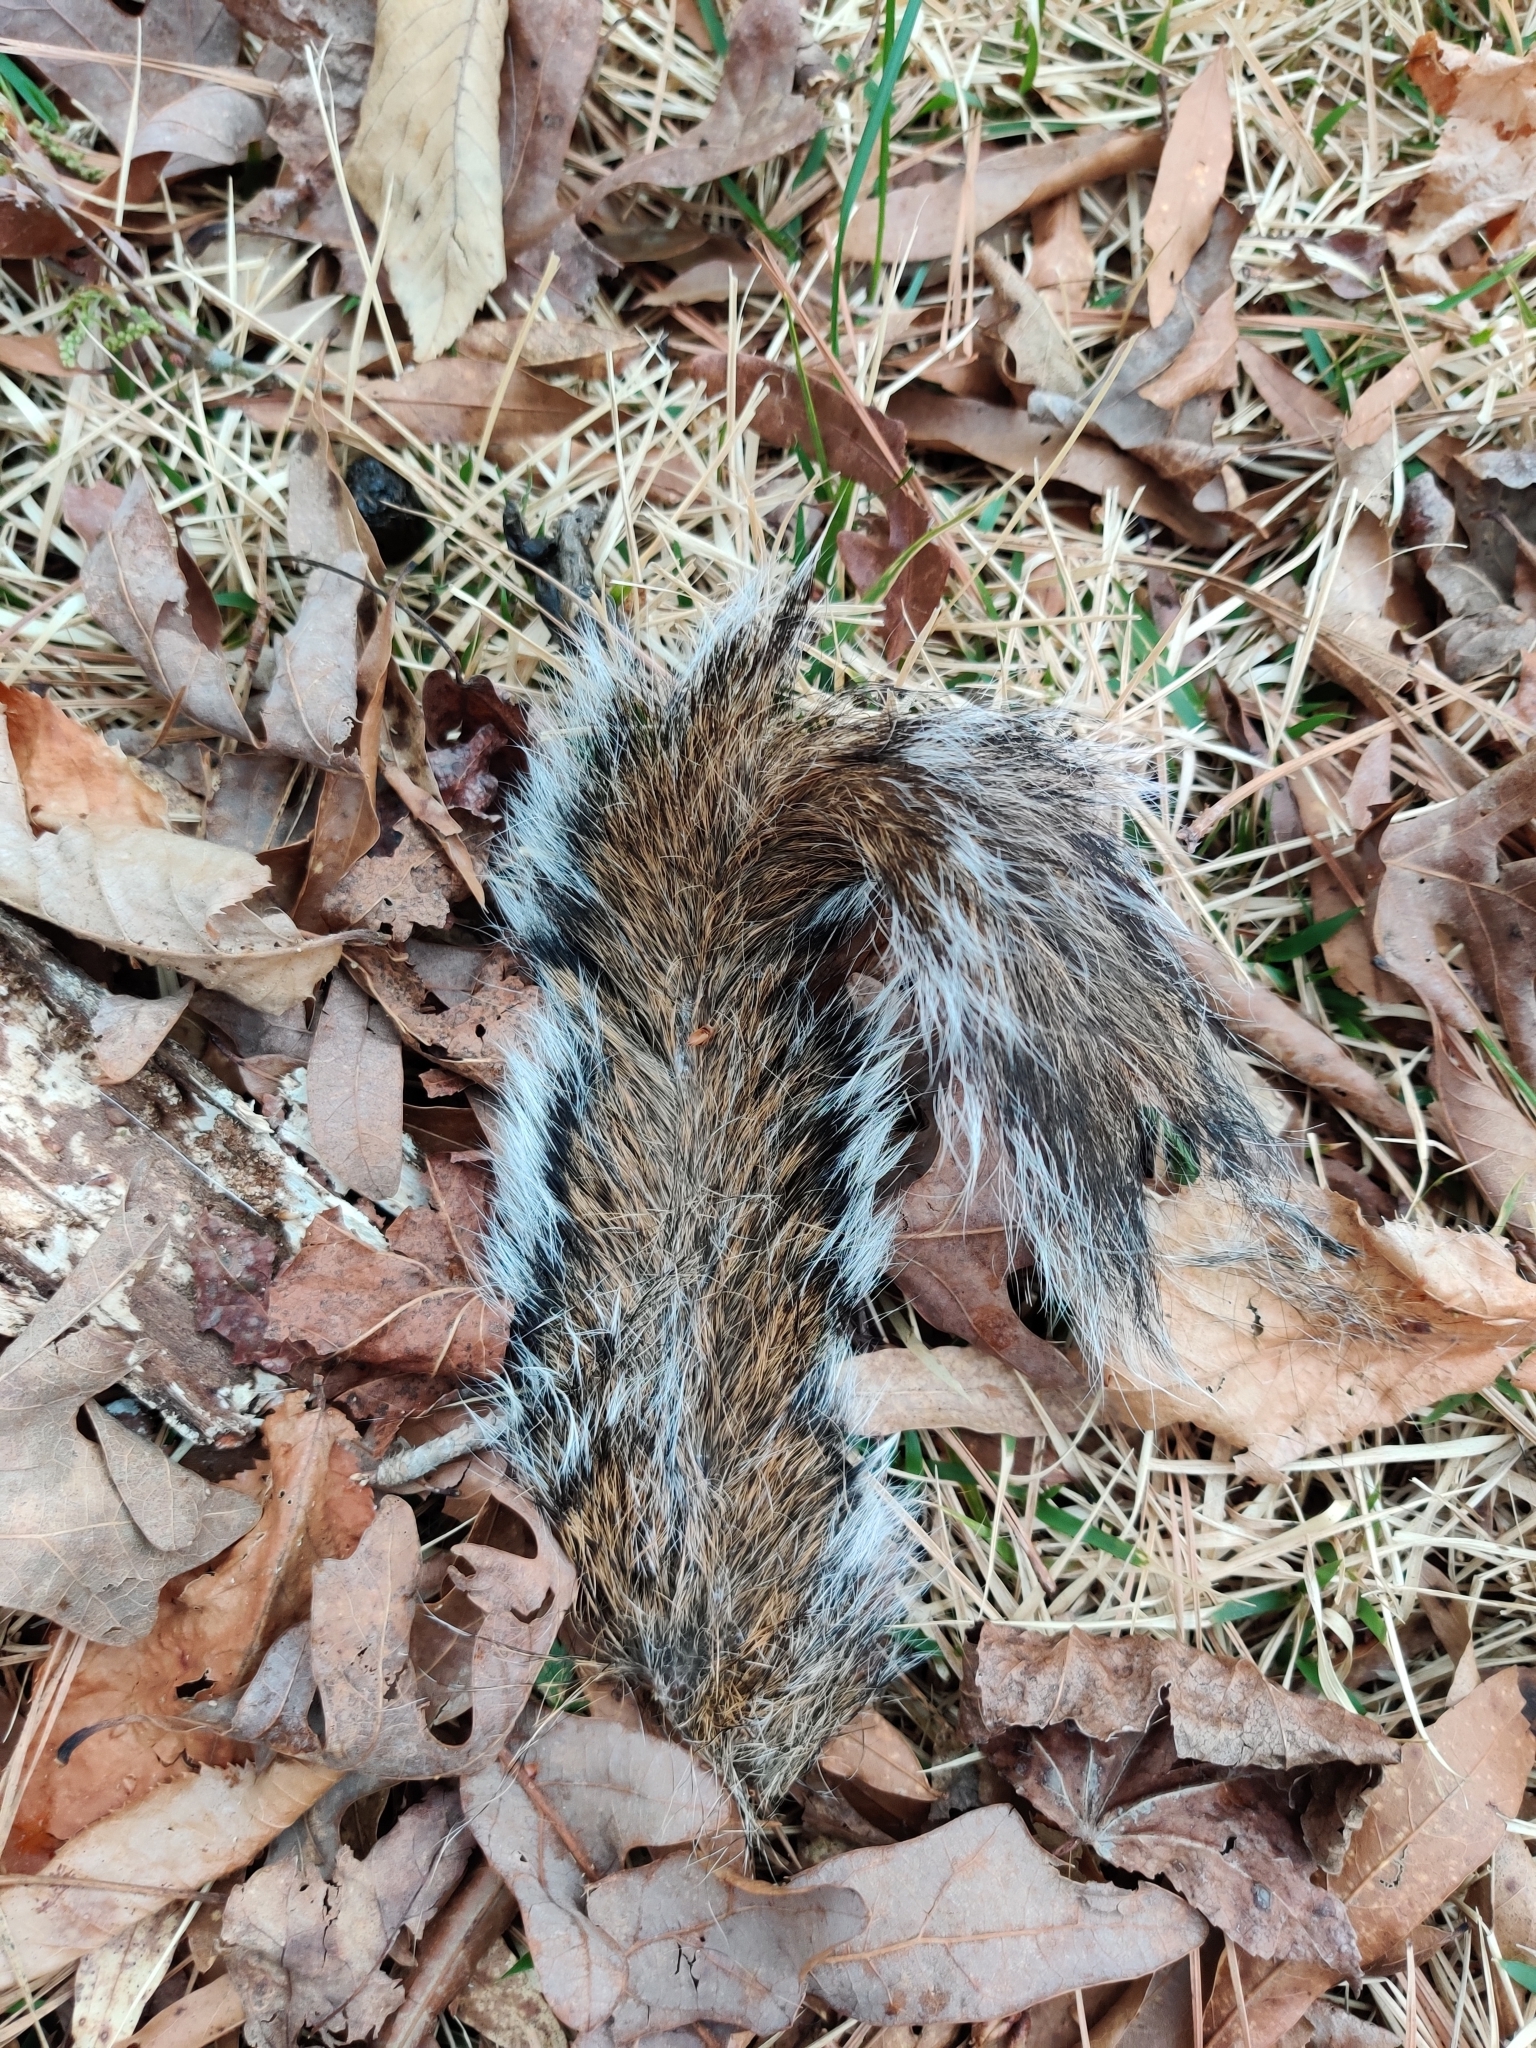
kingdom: Animalia
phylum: Chordata
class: Mammalia
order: Rodentia
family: Sciuridae
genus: Sciurus
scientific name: Sciurus carolinensis
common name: Eastern gray squirrel
